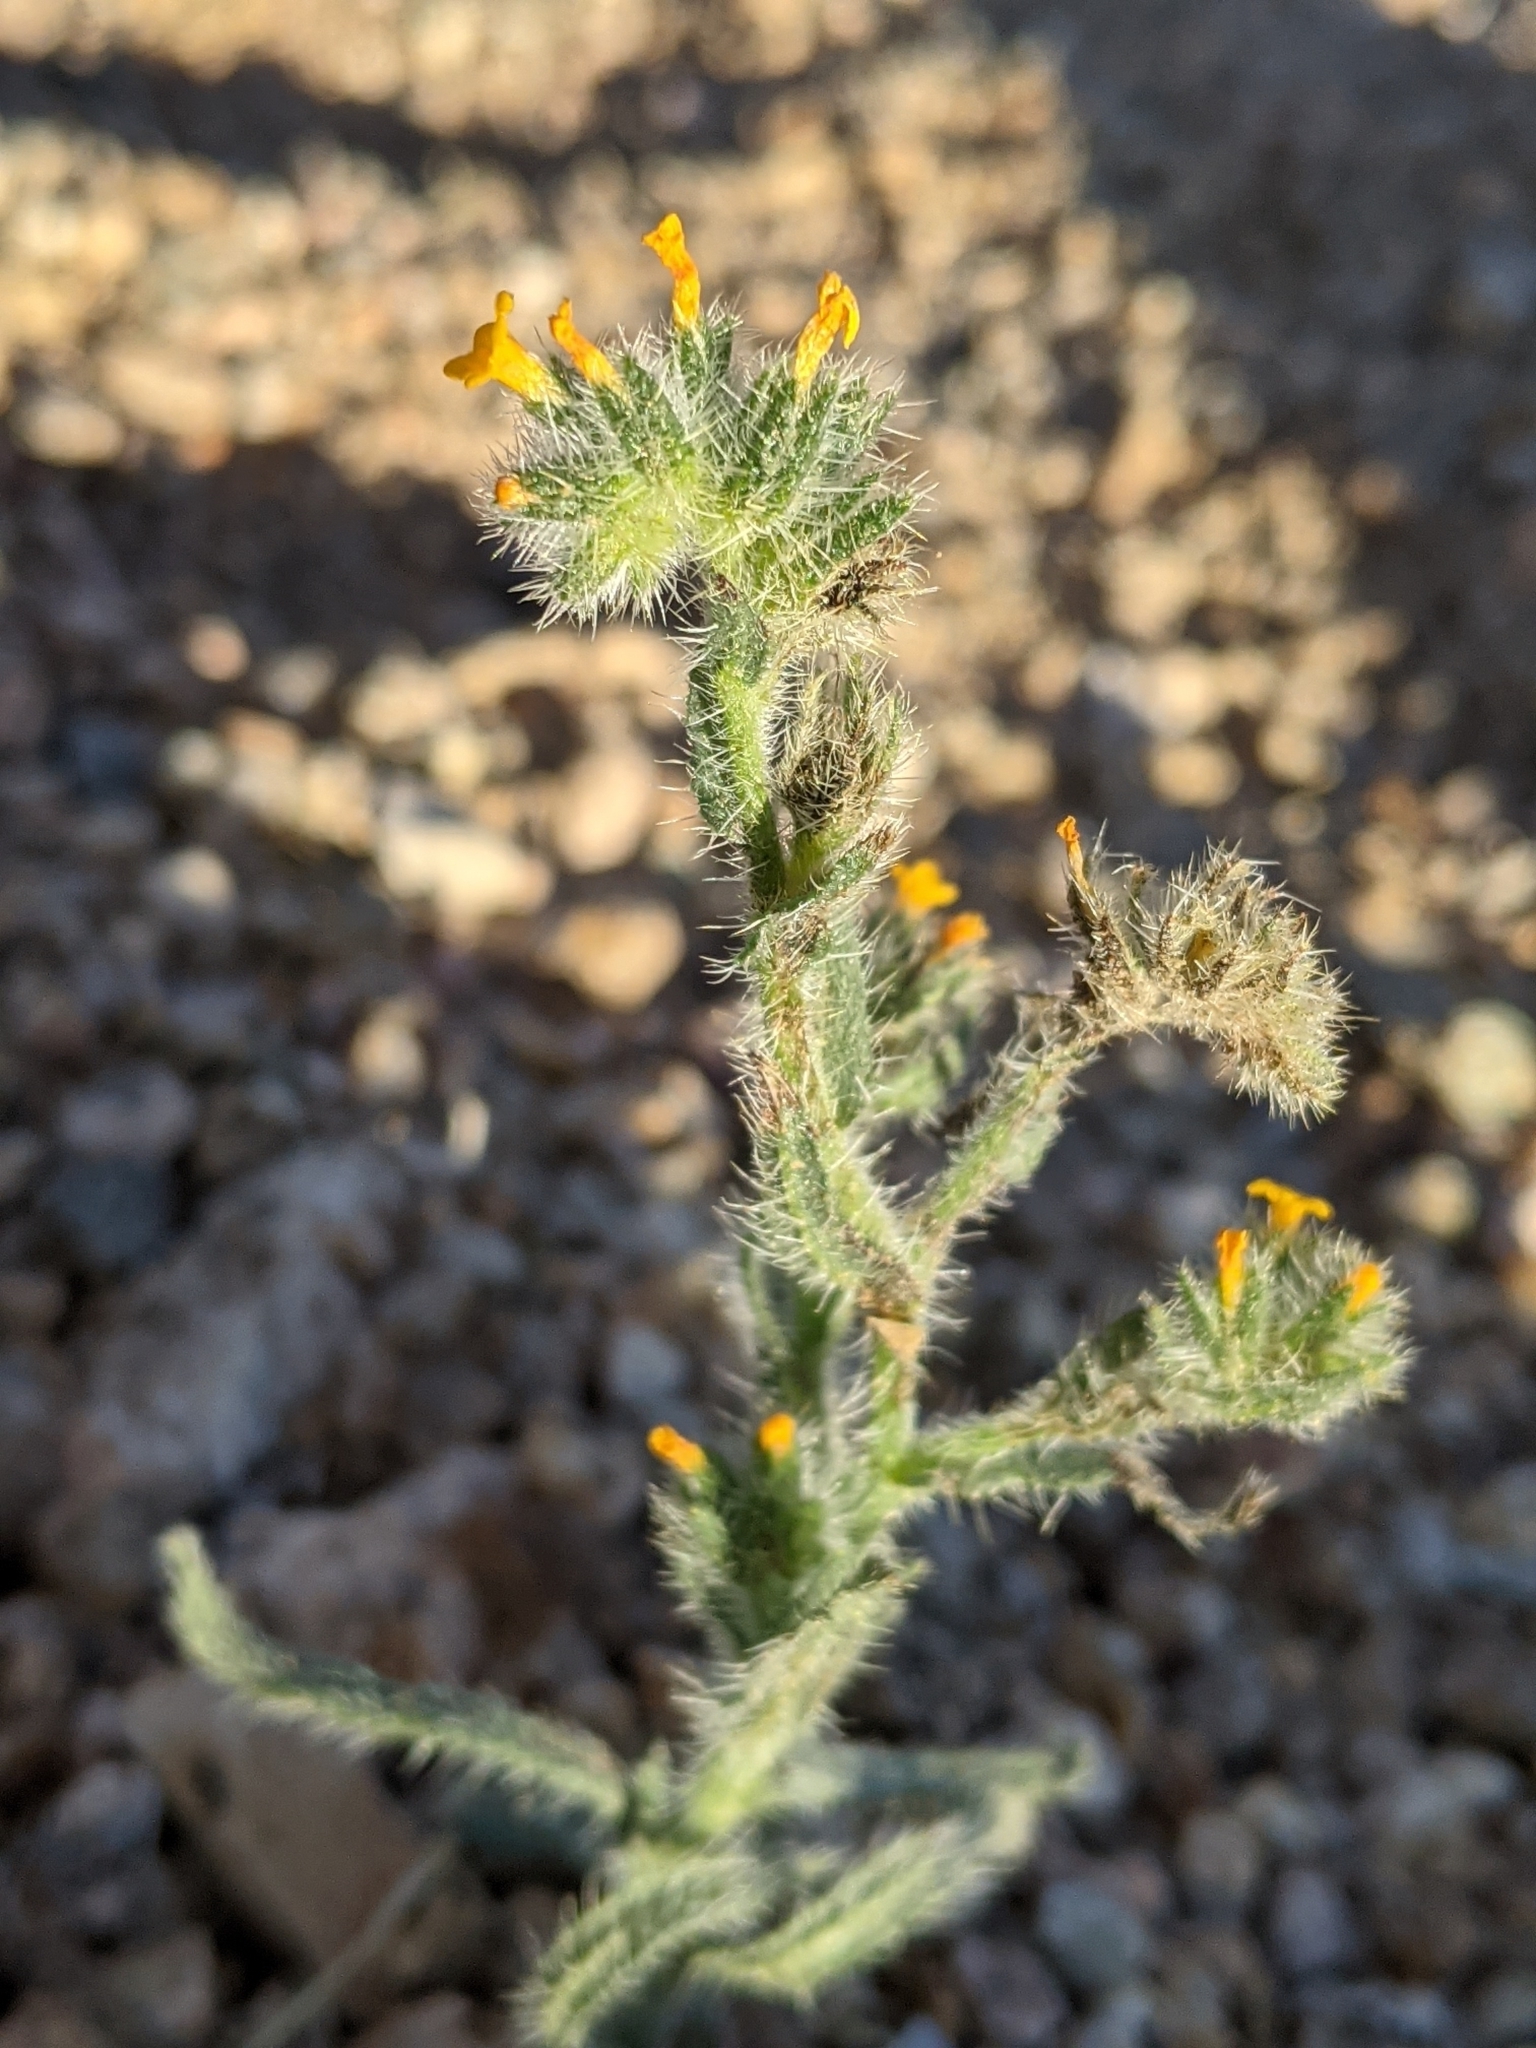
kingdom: Plantae
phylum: Tracheophyta
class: Magnoliopsida
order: Boraginales
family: Boraginaceae
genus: Amsinckia
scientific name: Amsinckia tessellata
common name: Tessellate fiddleneck
